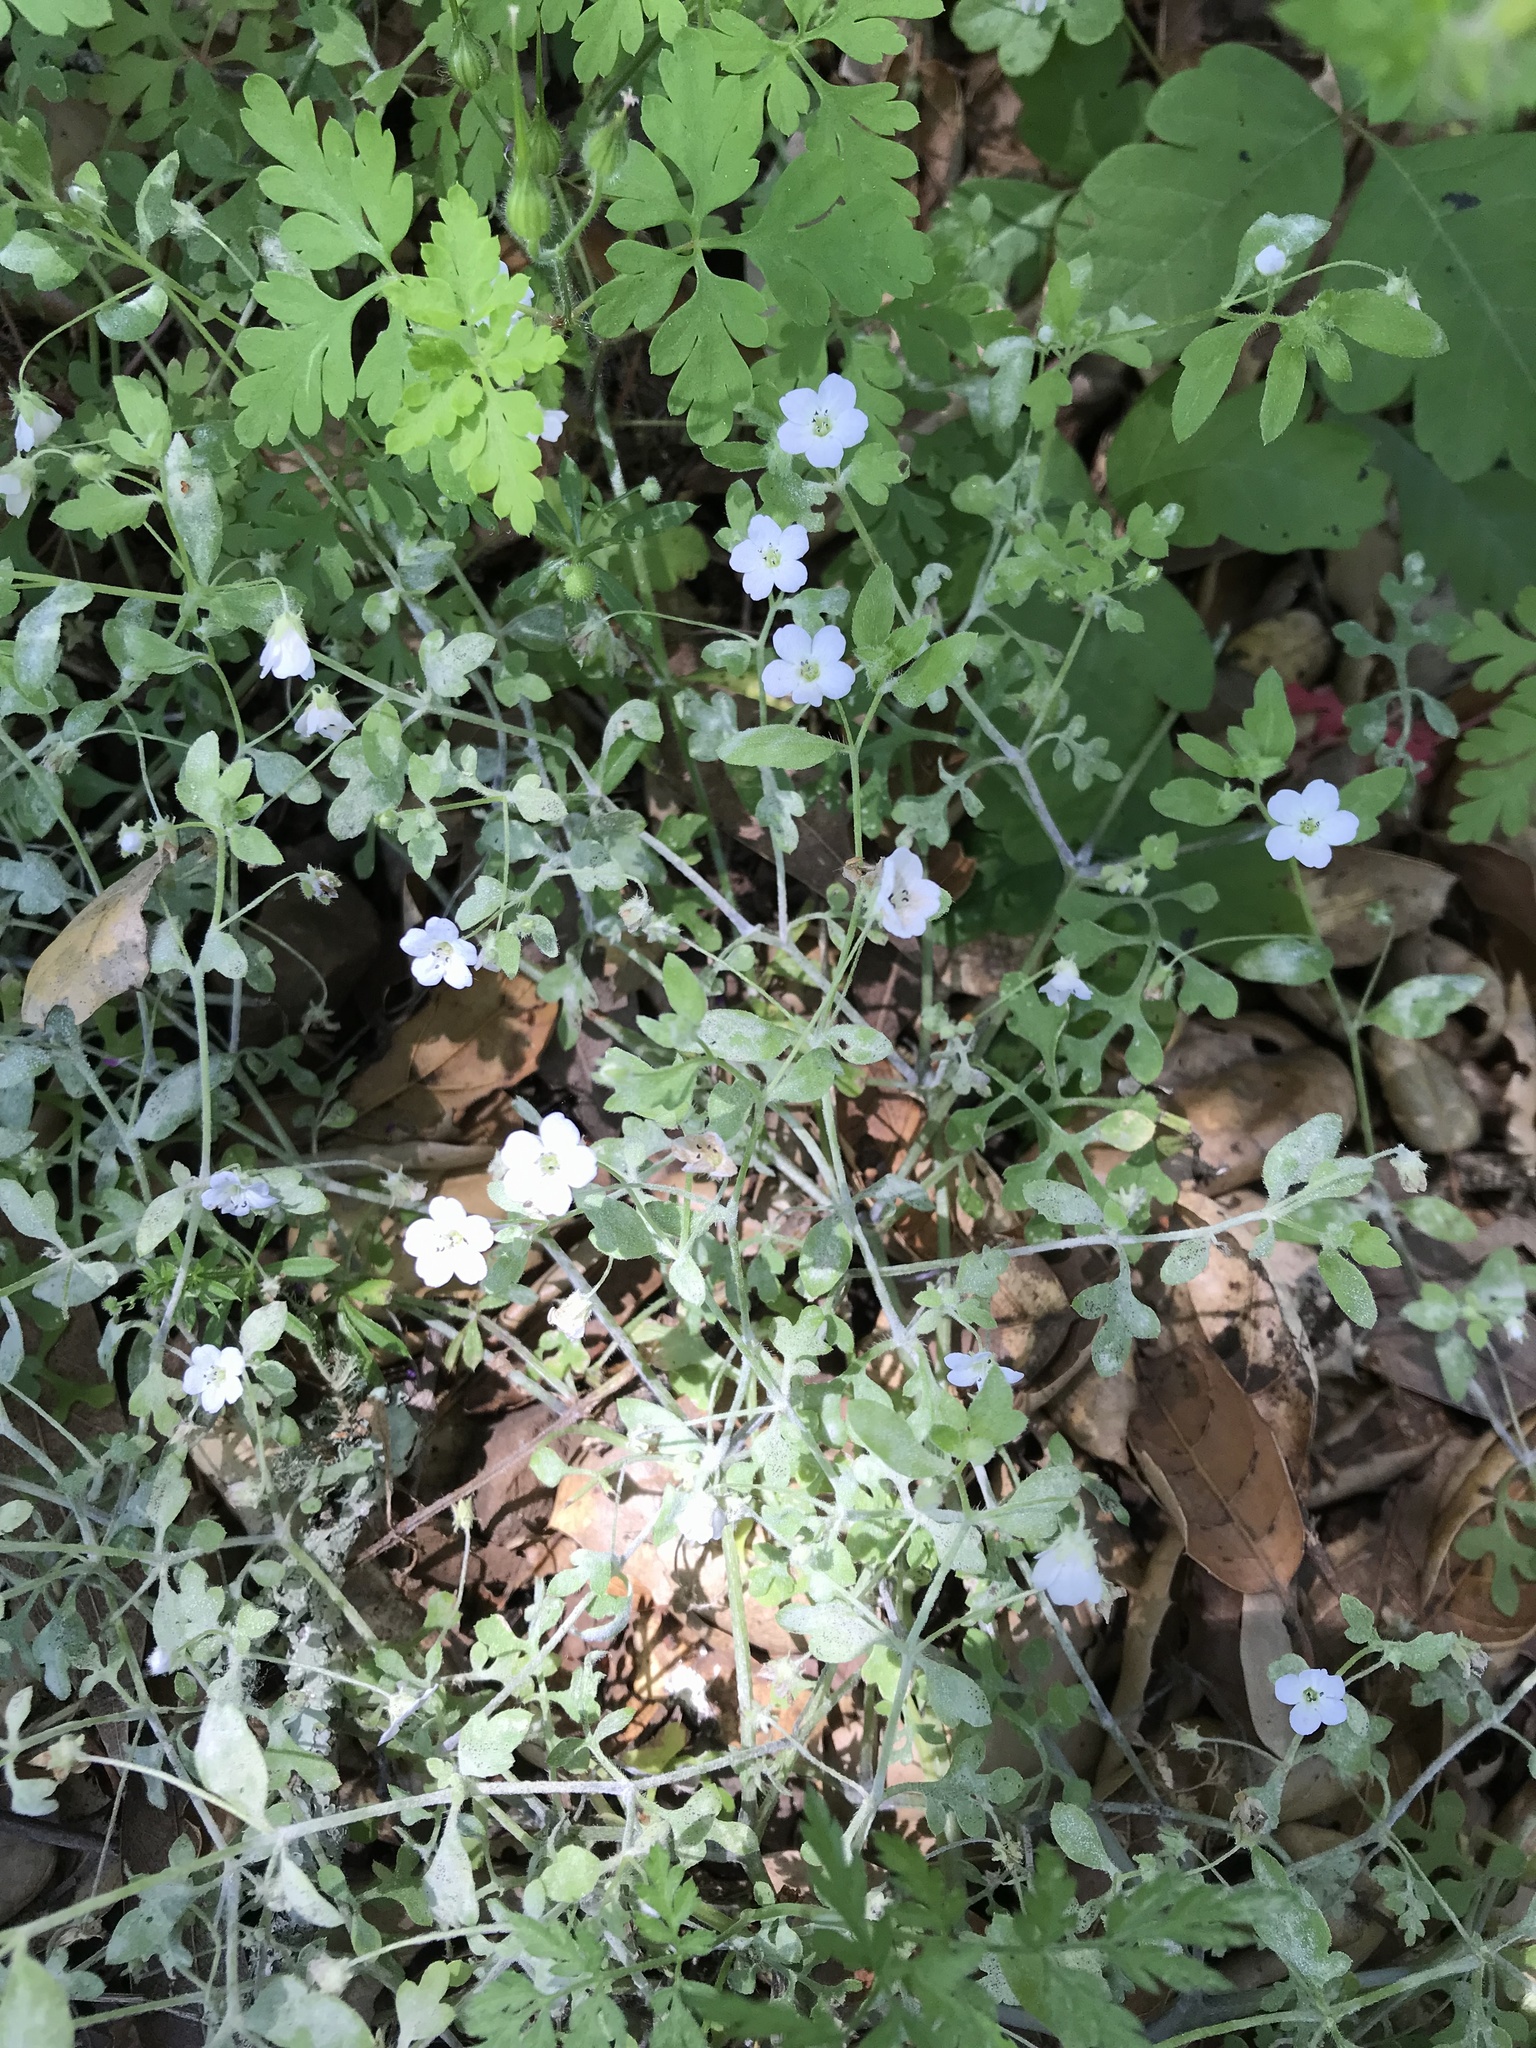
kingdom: Plantae
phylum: Tracheophyta
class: Magnoliopsida
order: Boraginales
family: Hydrophyllaceae
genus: Nemophila
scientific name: Nemophila heterophylla
